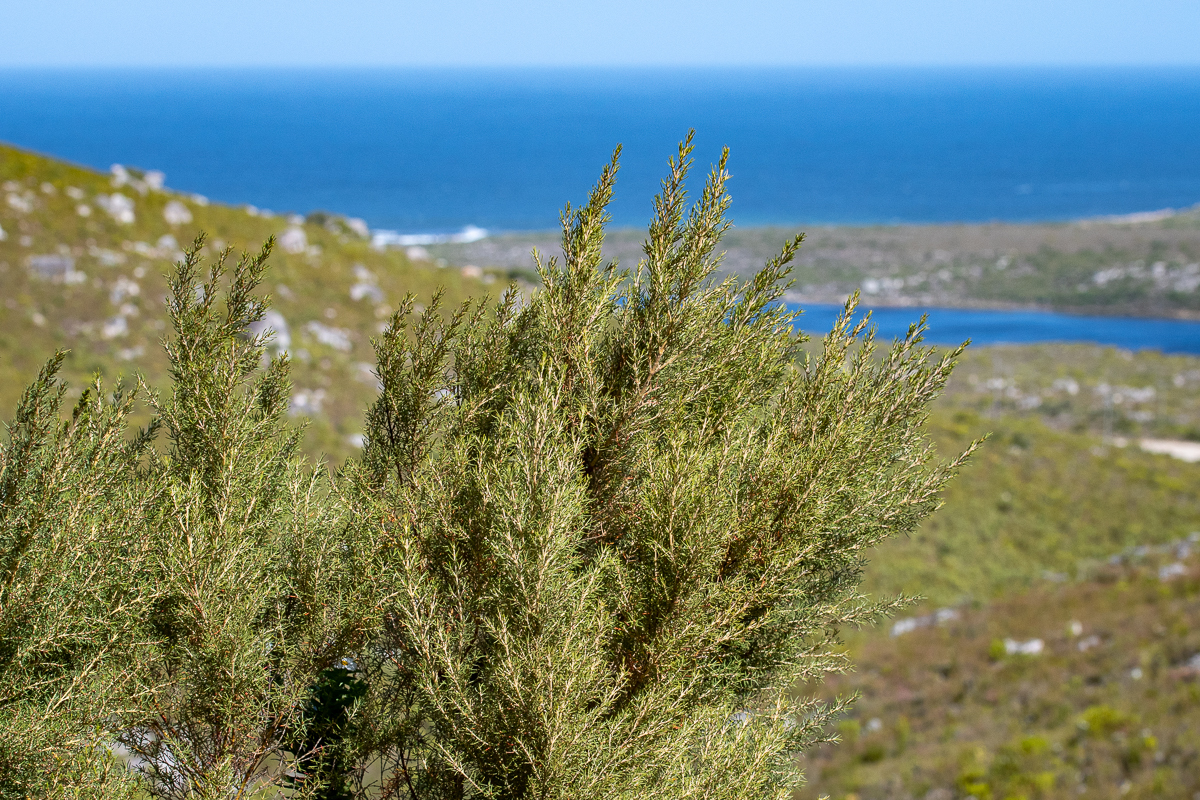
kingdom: Plantae
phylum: Tracheophyta
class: Magnoliopsida
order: Cornales
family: Grubbiaceae
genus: Grubbia
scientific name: Grubbia rosmarinifolia
